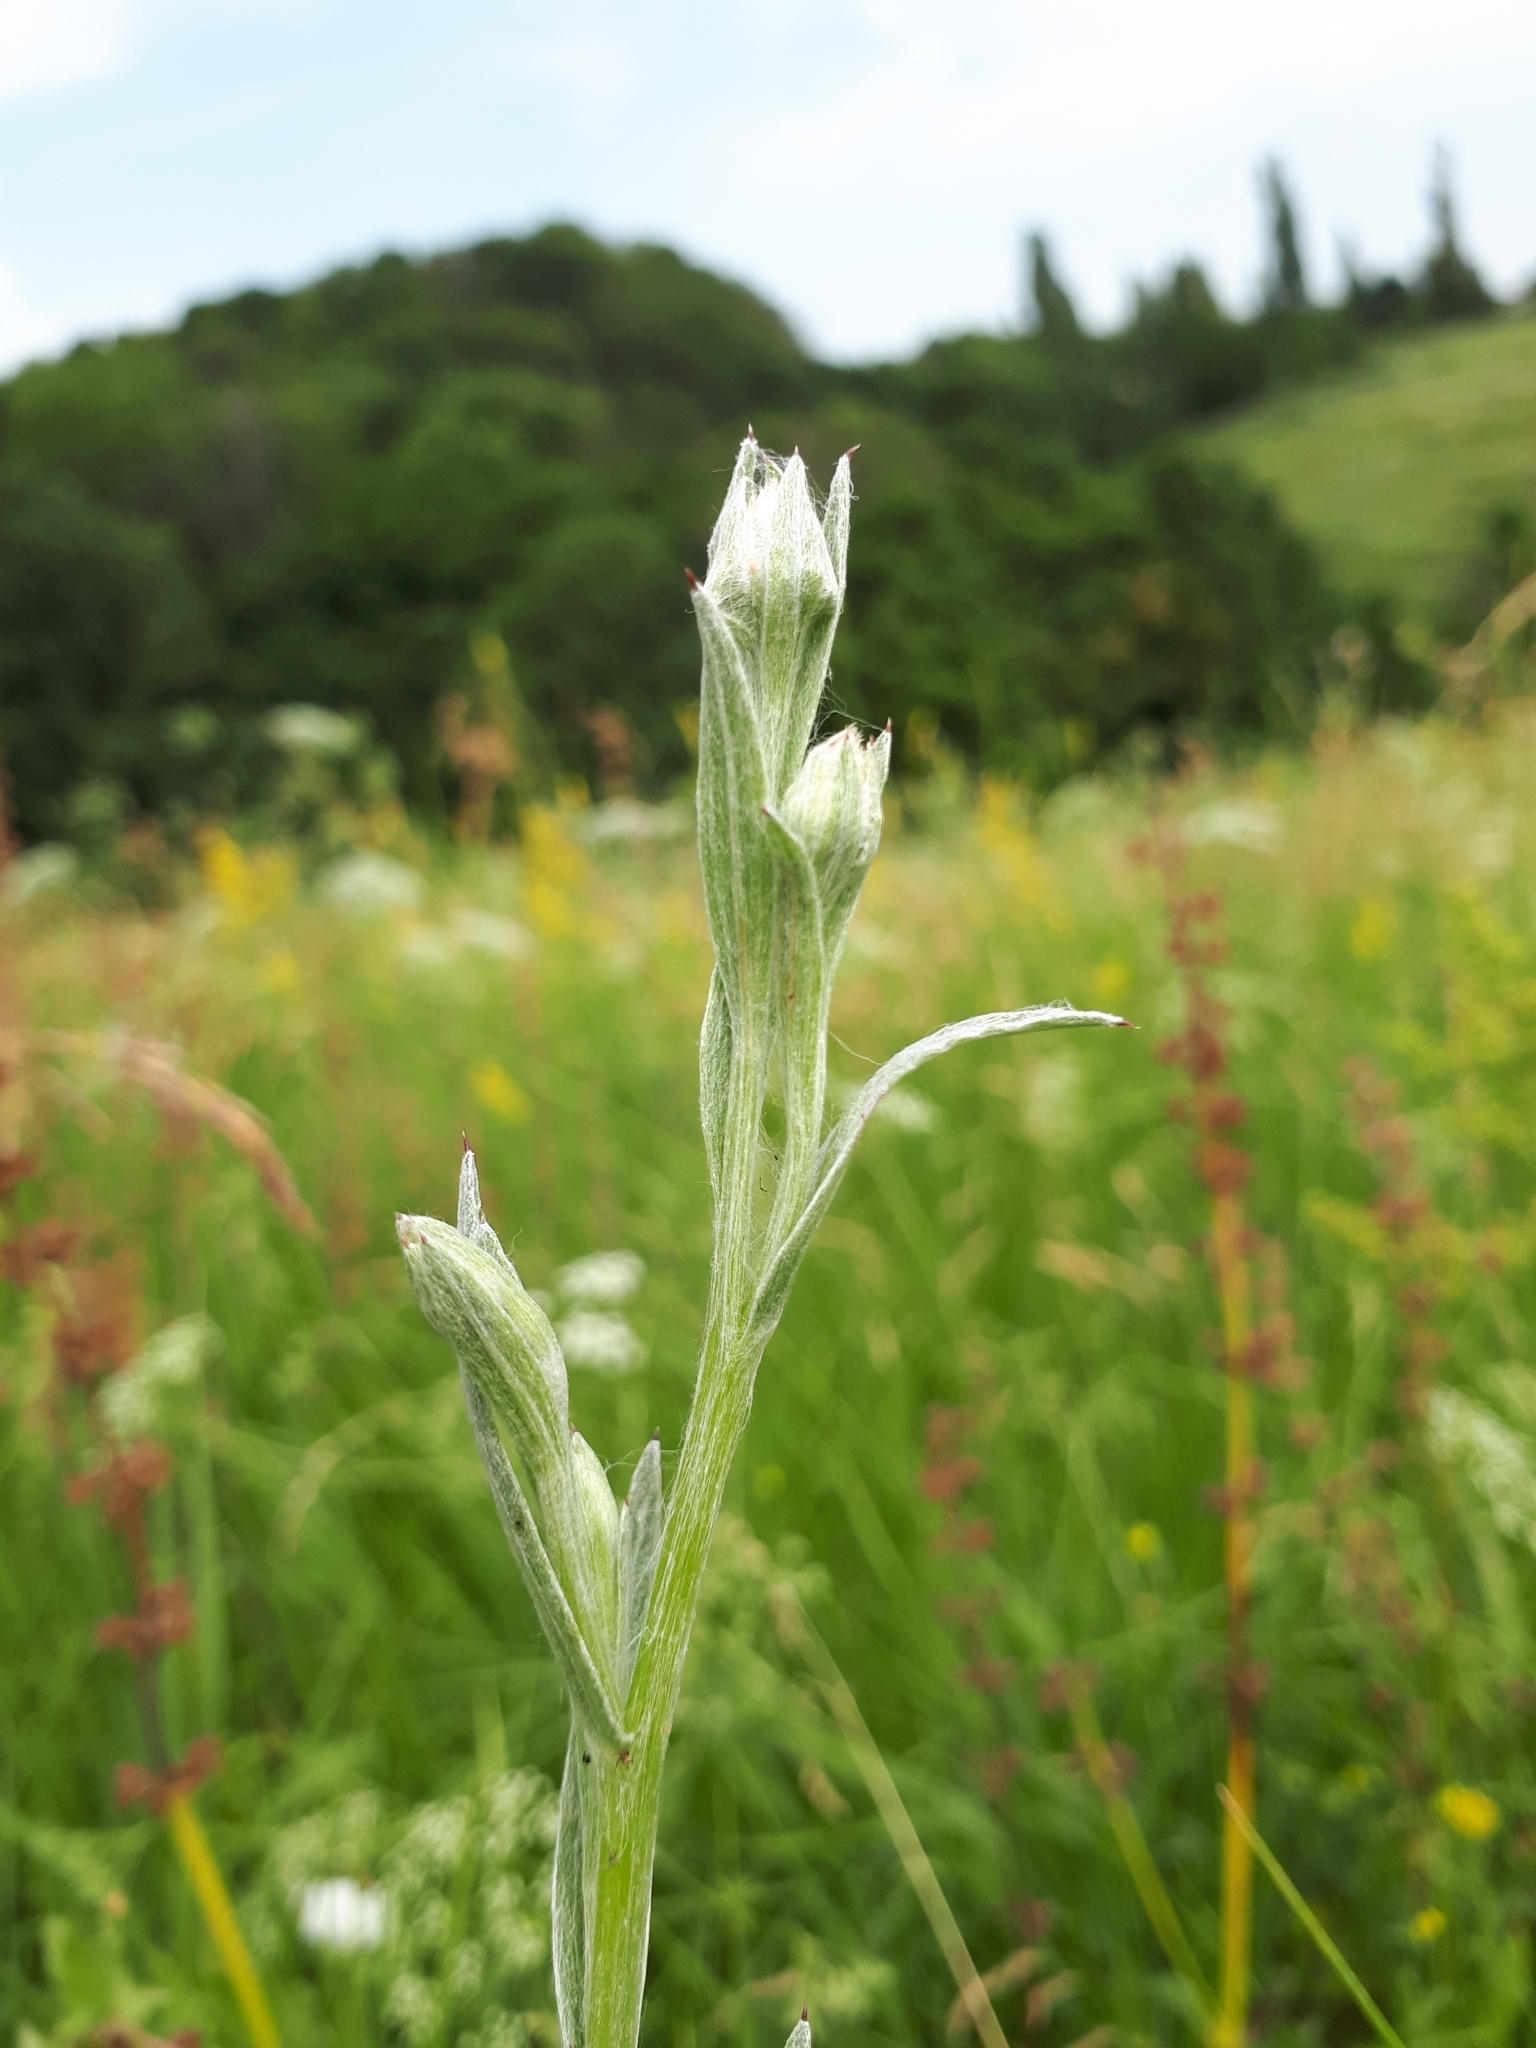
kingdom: Plantae
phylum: Tracheophyta
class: Magnoliopsida
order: Asterales
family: Asteraceae
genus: Centaurea
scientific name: Centaurea jacea
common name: Brown knapweed
